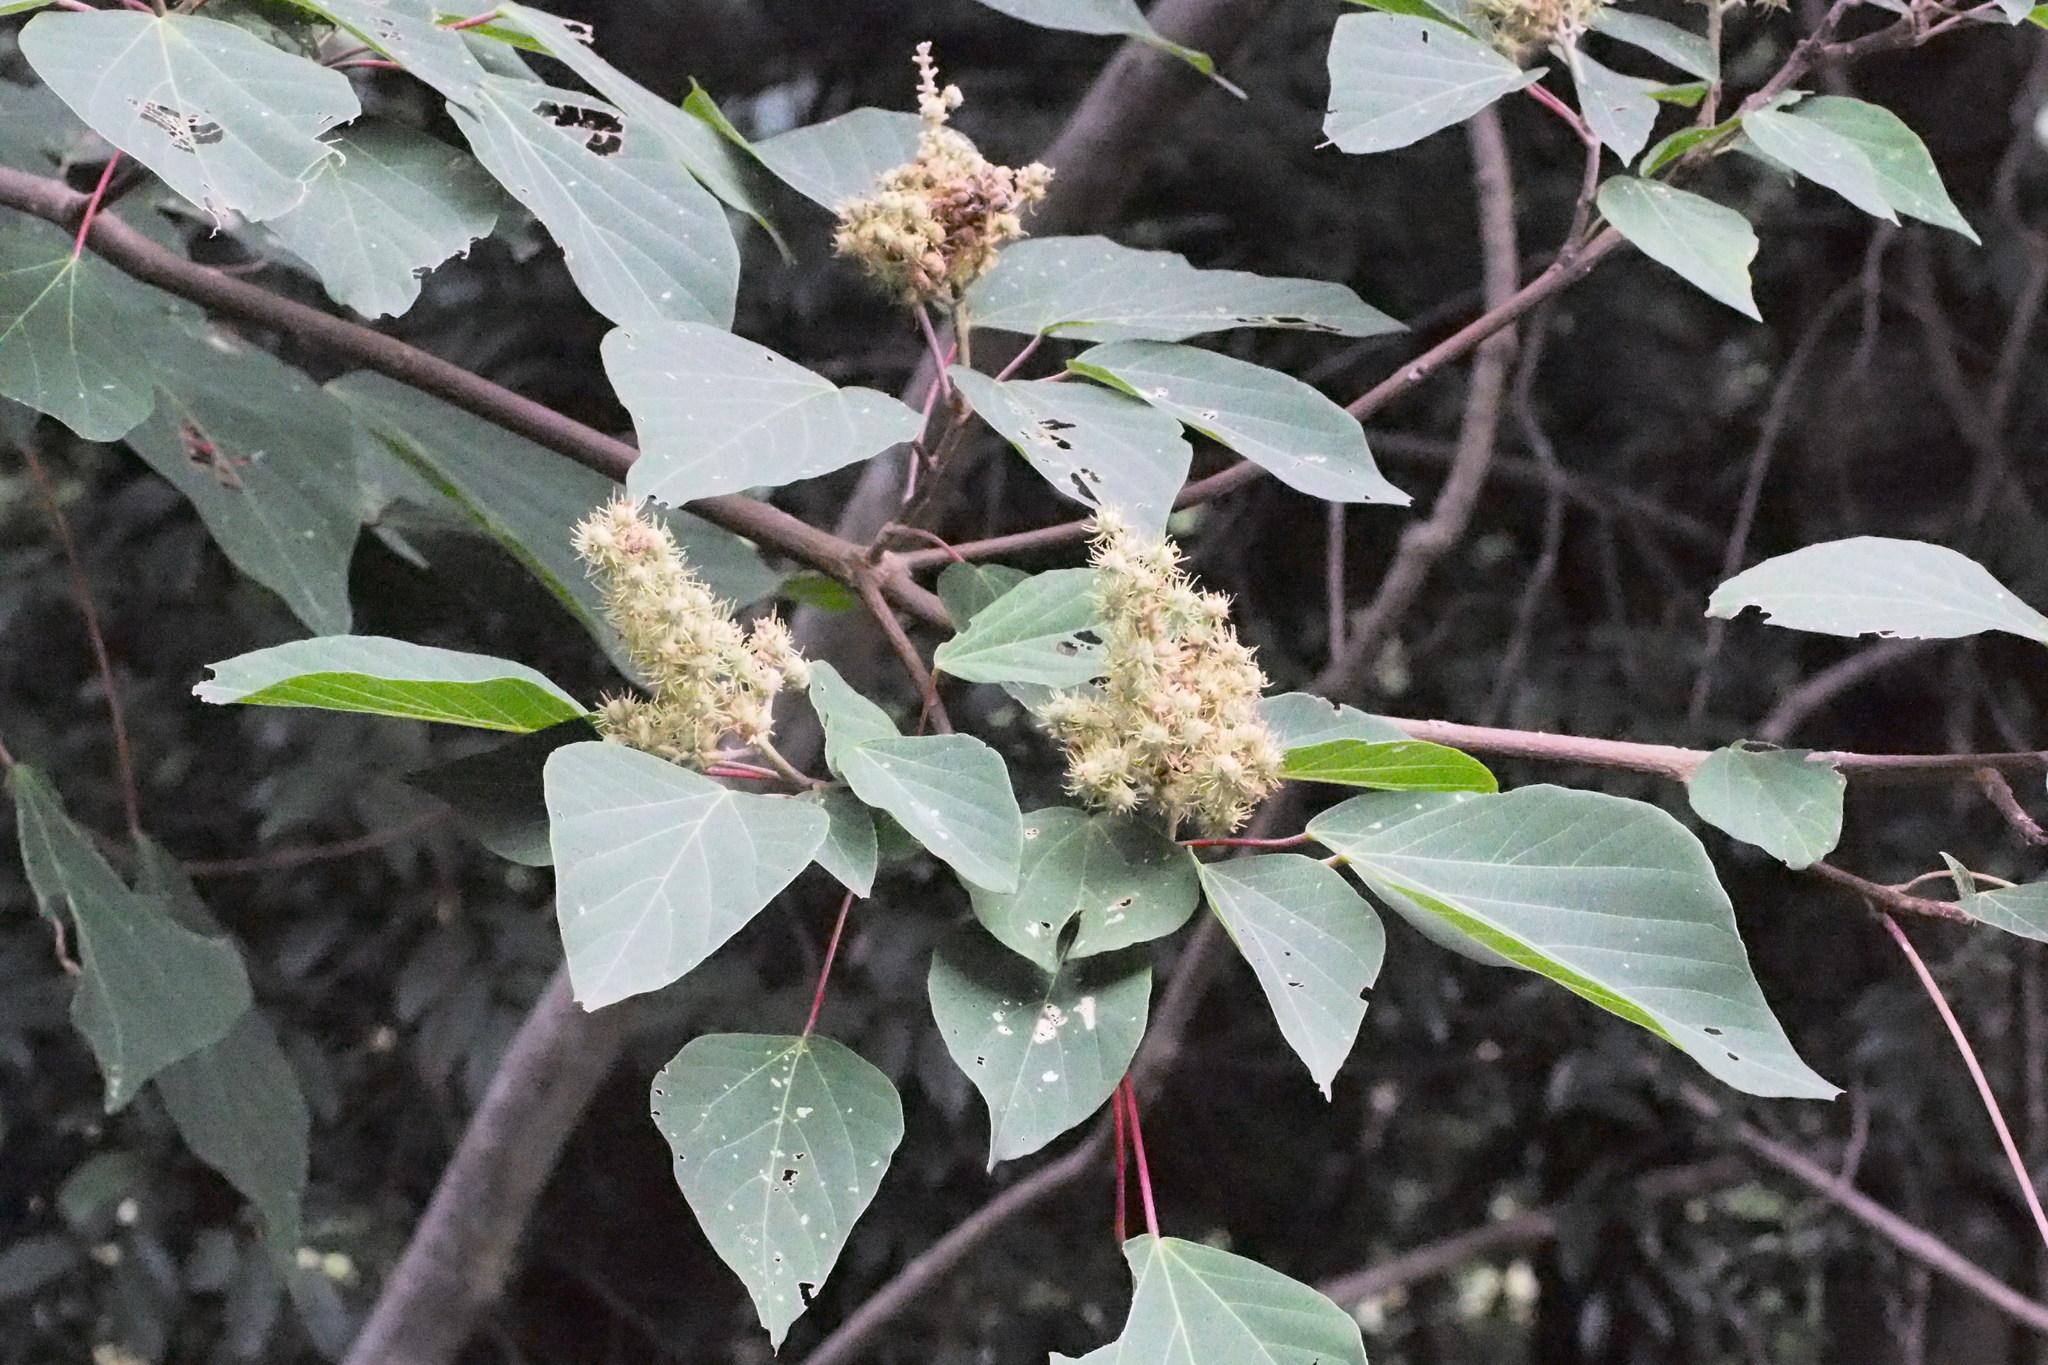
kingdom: Plantae
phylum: Tracheophyta
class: Magnoliopsida
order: Malpighiales
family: Euphorbiaceae
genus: Mallotus
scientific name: Mallotus japonicus
